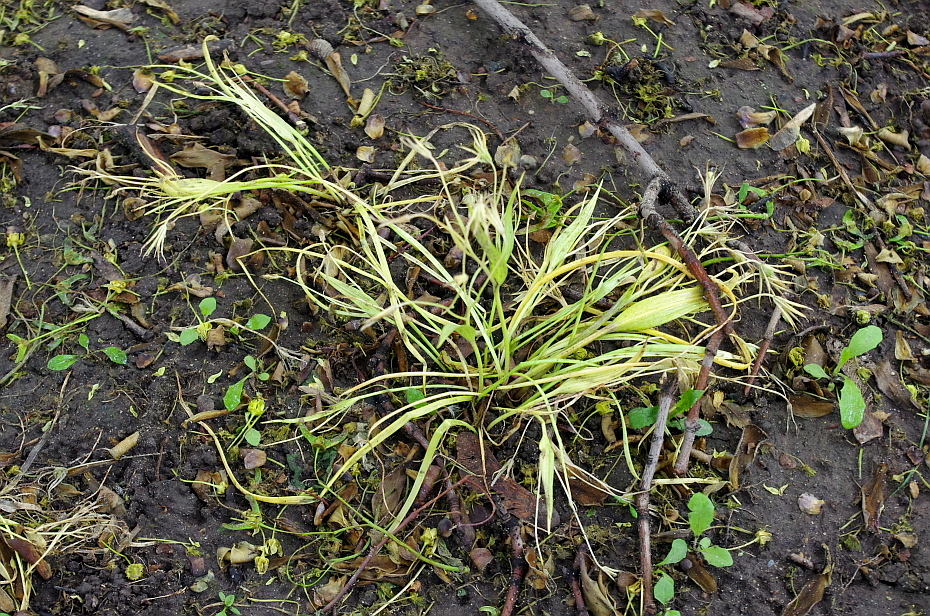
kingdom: Plantae
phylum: Tracheophyta
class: Liliopsida
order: Liliales
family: Liliaceae
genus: Gagea
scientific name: Gagea minima
